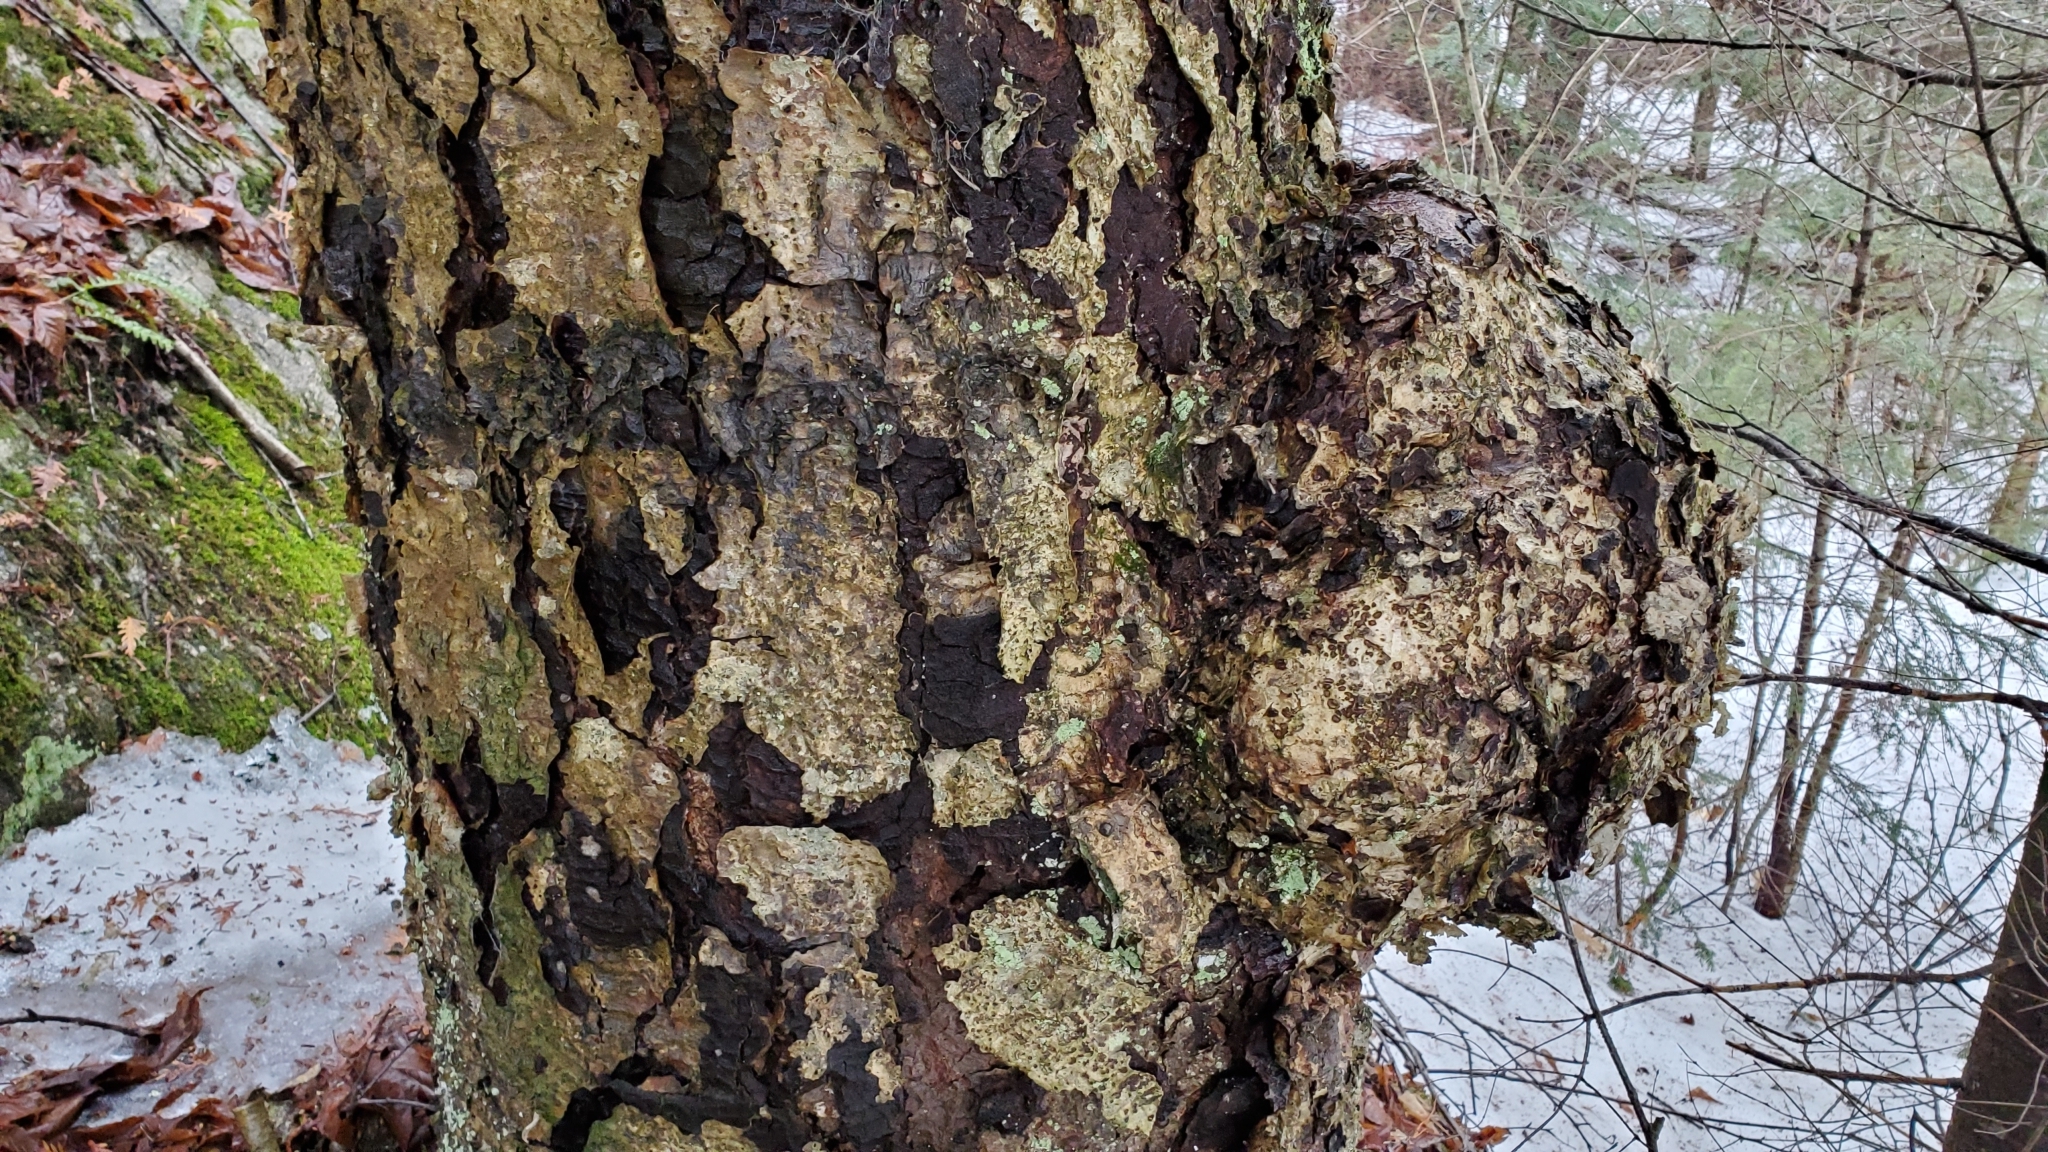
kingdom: Plantae
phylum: Tracheophyta
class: Magnoliopsida
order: Fagales
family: Betulaceae
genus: Betula
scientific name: Betula alleghaniensis
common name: Yellow birch
